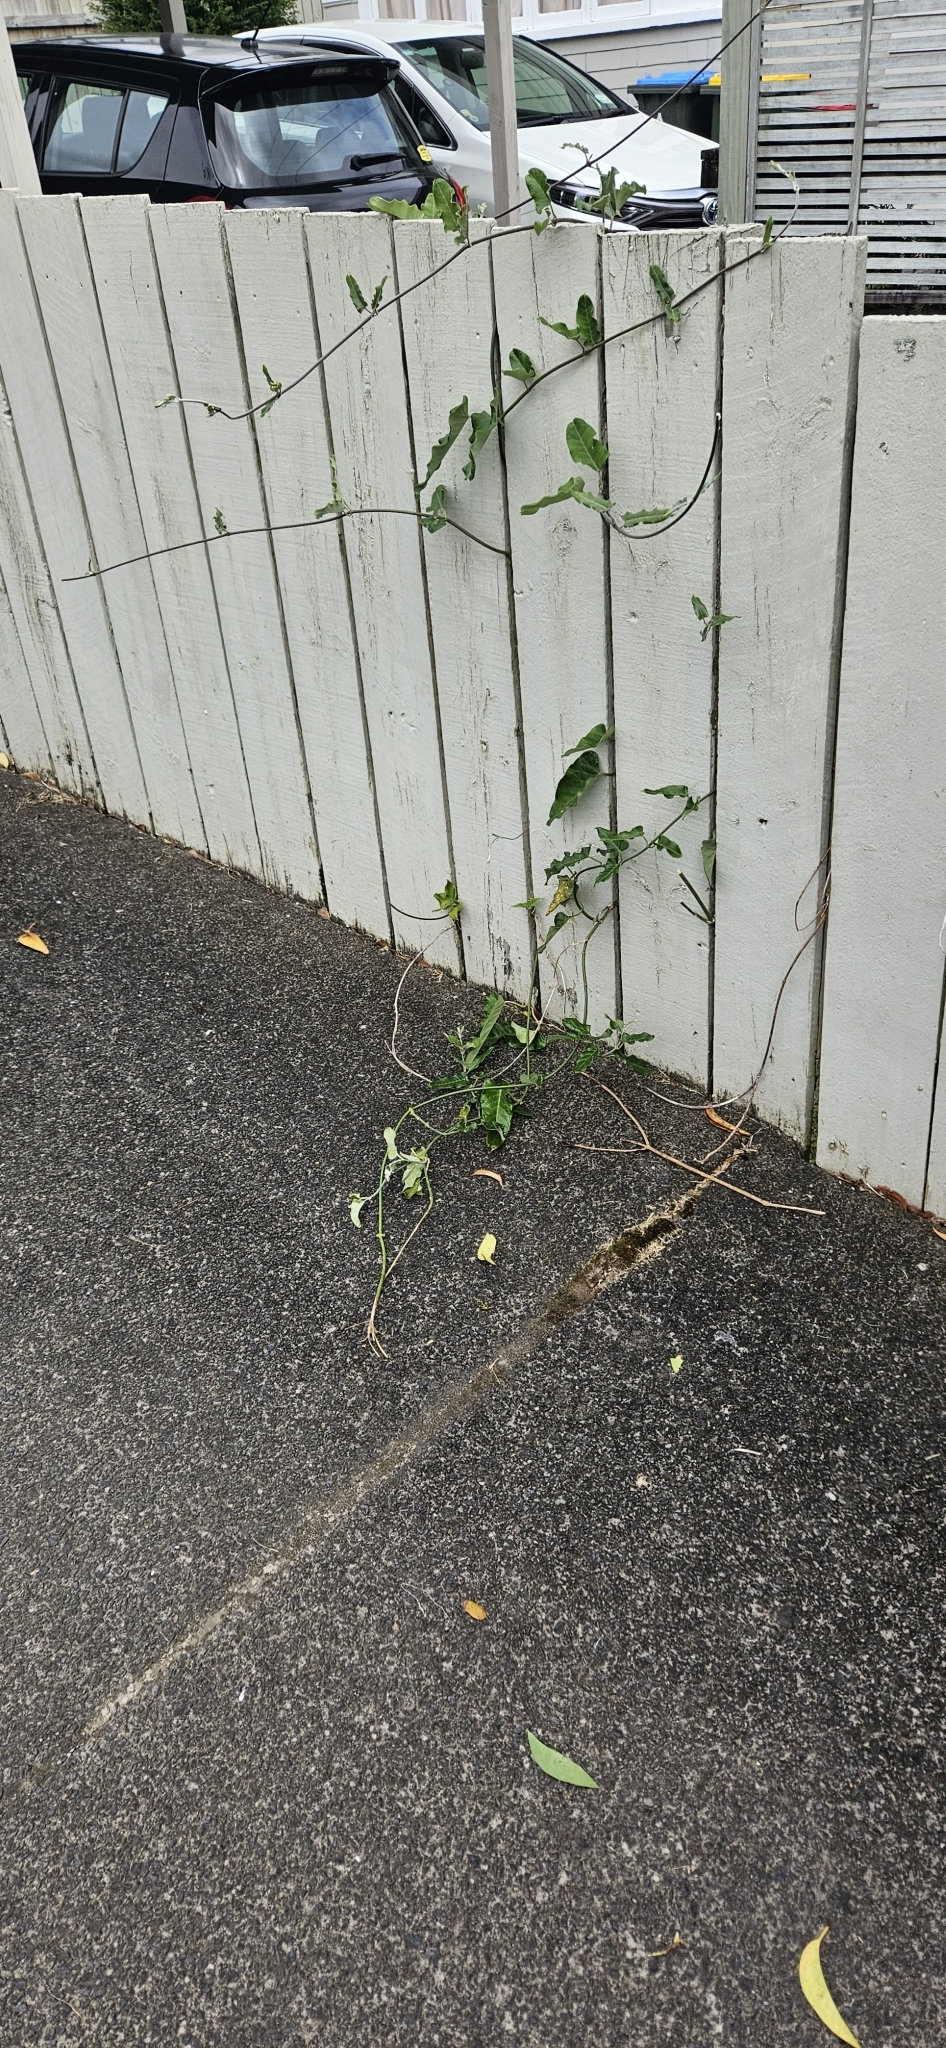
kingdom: Plantae
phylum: Tracheophyta
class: Magnoliopsida
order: Gentianales
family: Apocynaceae
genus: Araujia
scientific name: Araujia sericifera
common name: White bladderflower
